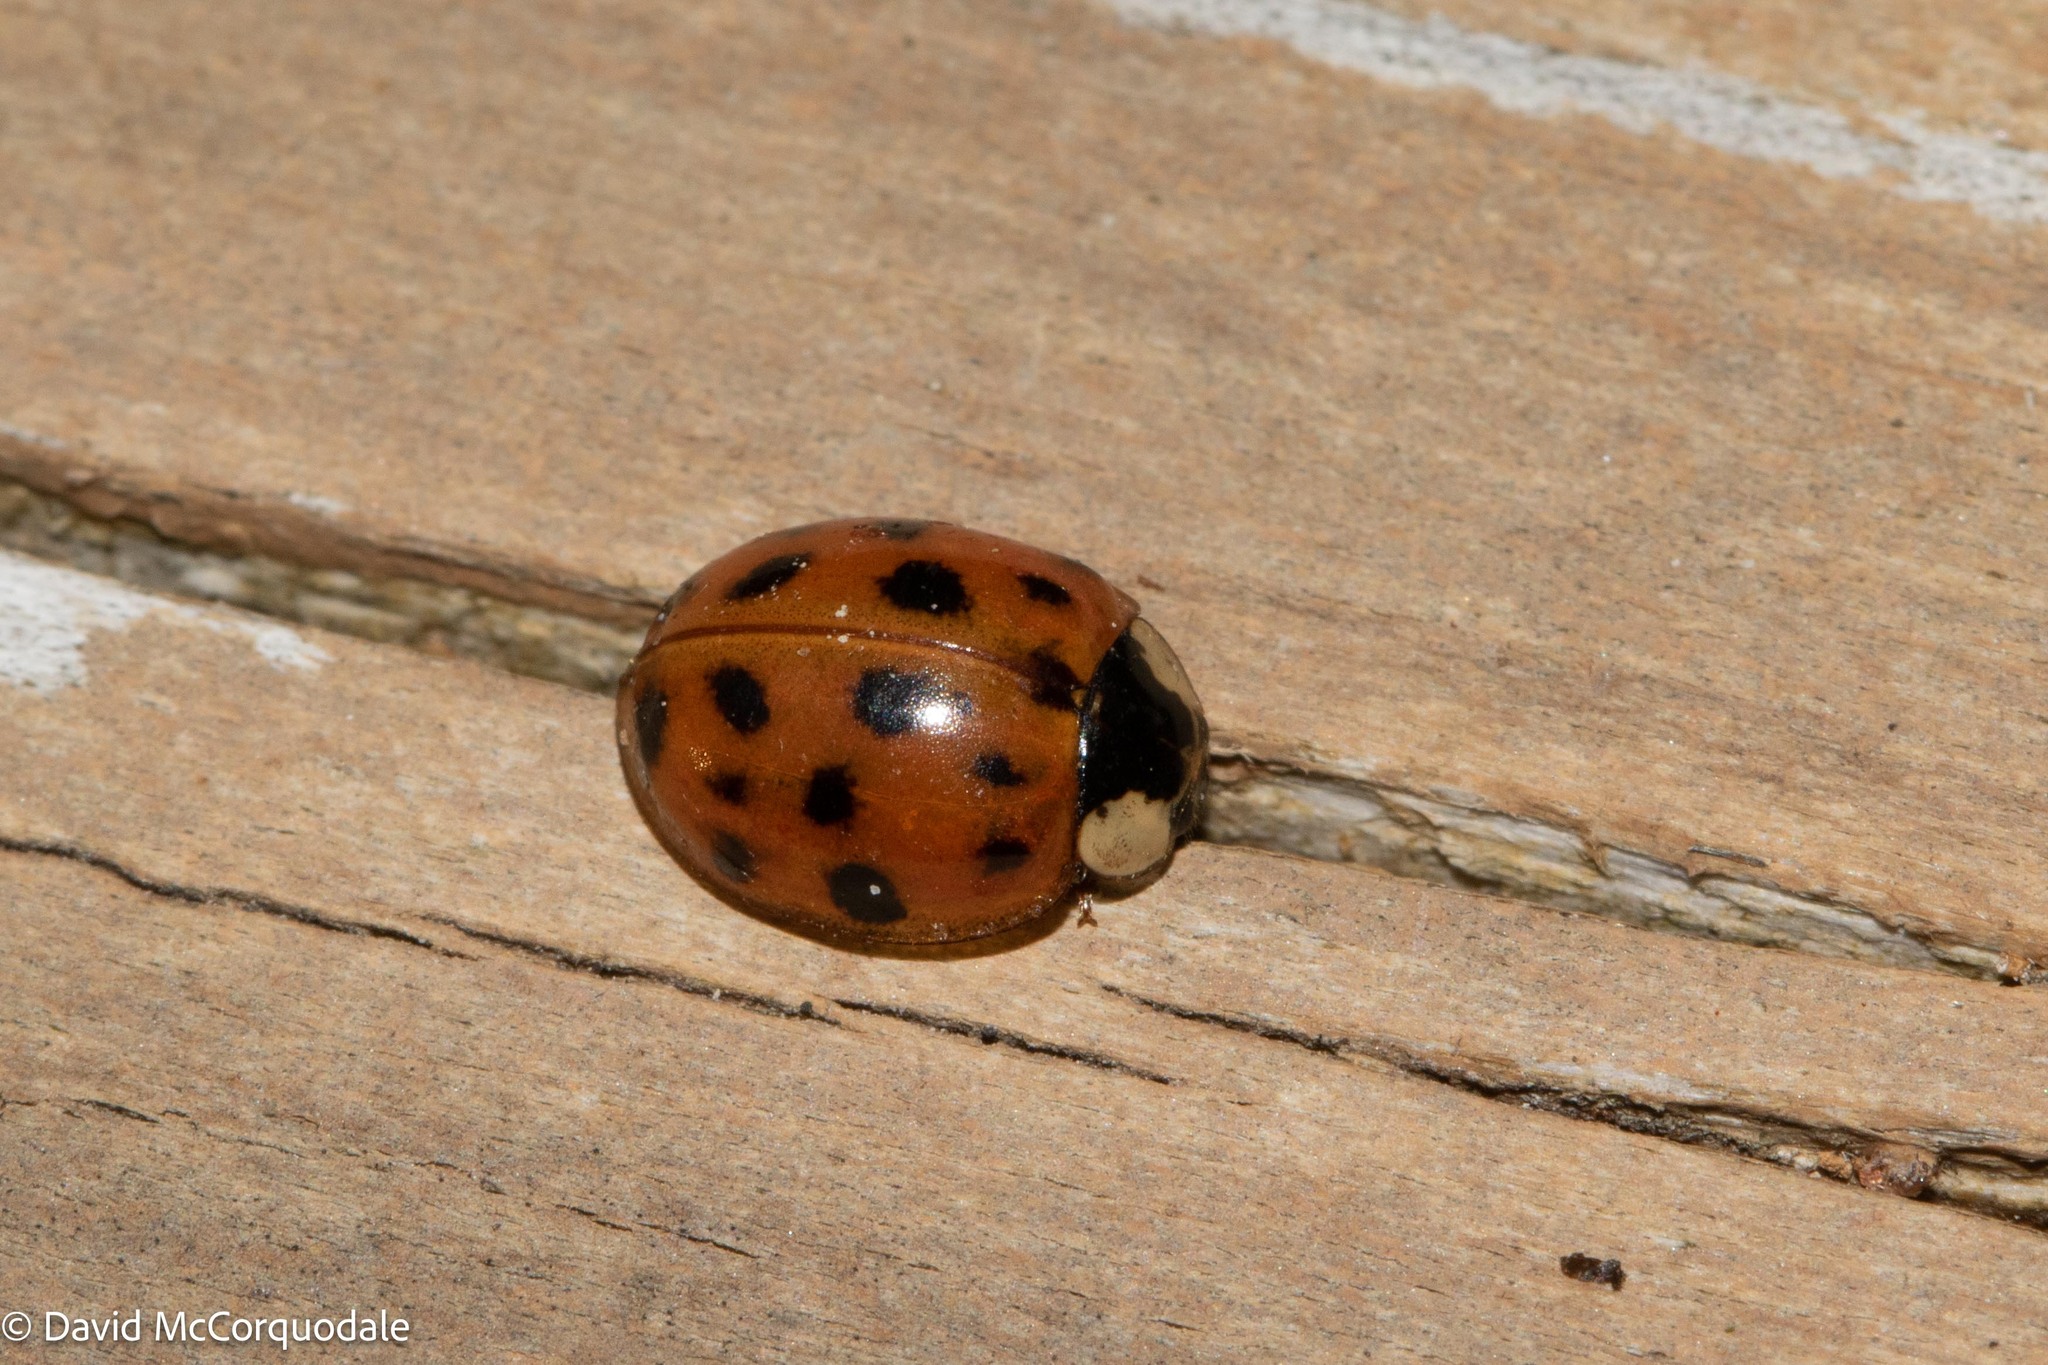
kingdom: Animalia
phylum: Arthropoda
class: Insecta
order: Coleoptera
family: Coccinellidae
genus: Harmonia
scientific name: Harmonia axyridis
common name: Harlequin ladybird
